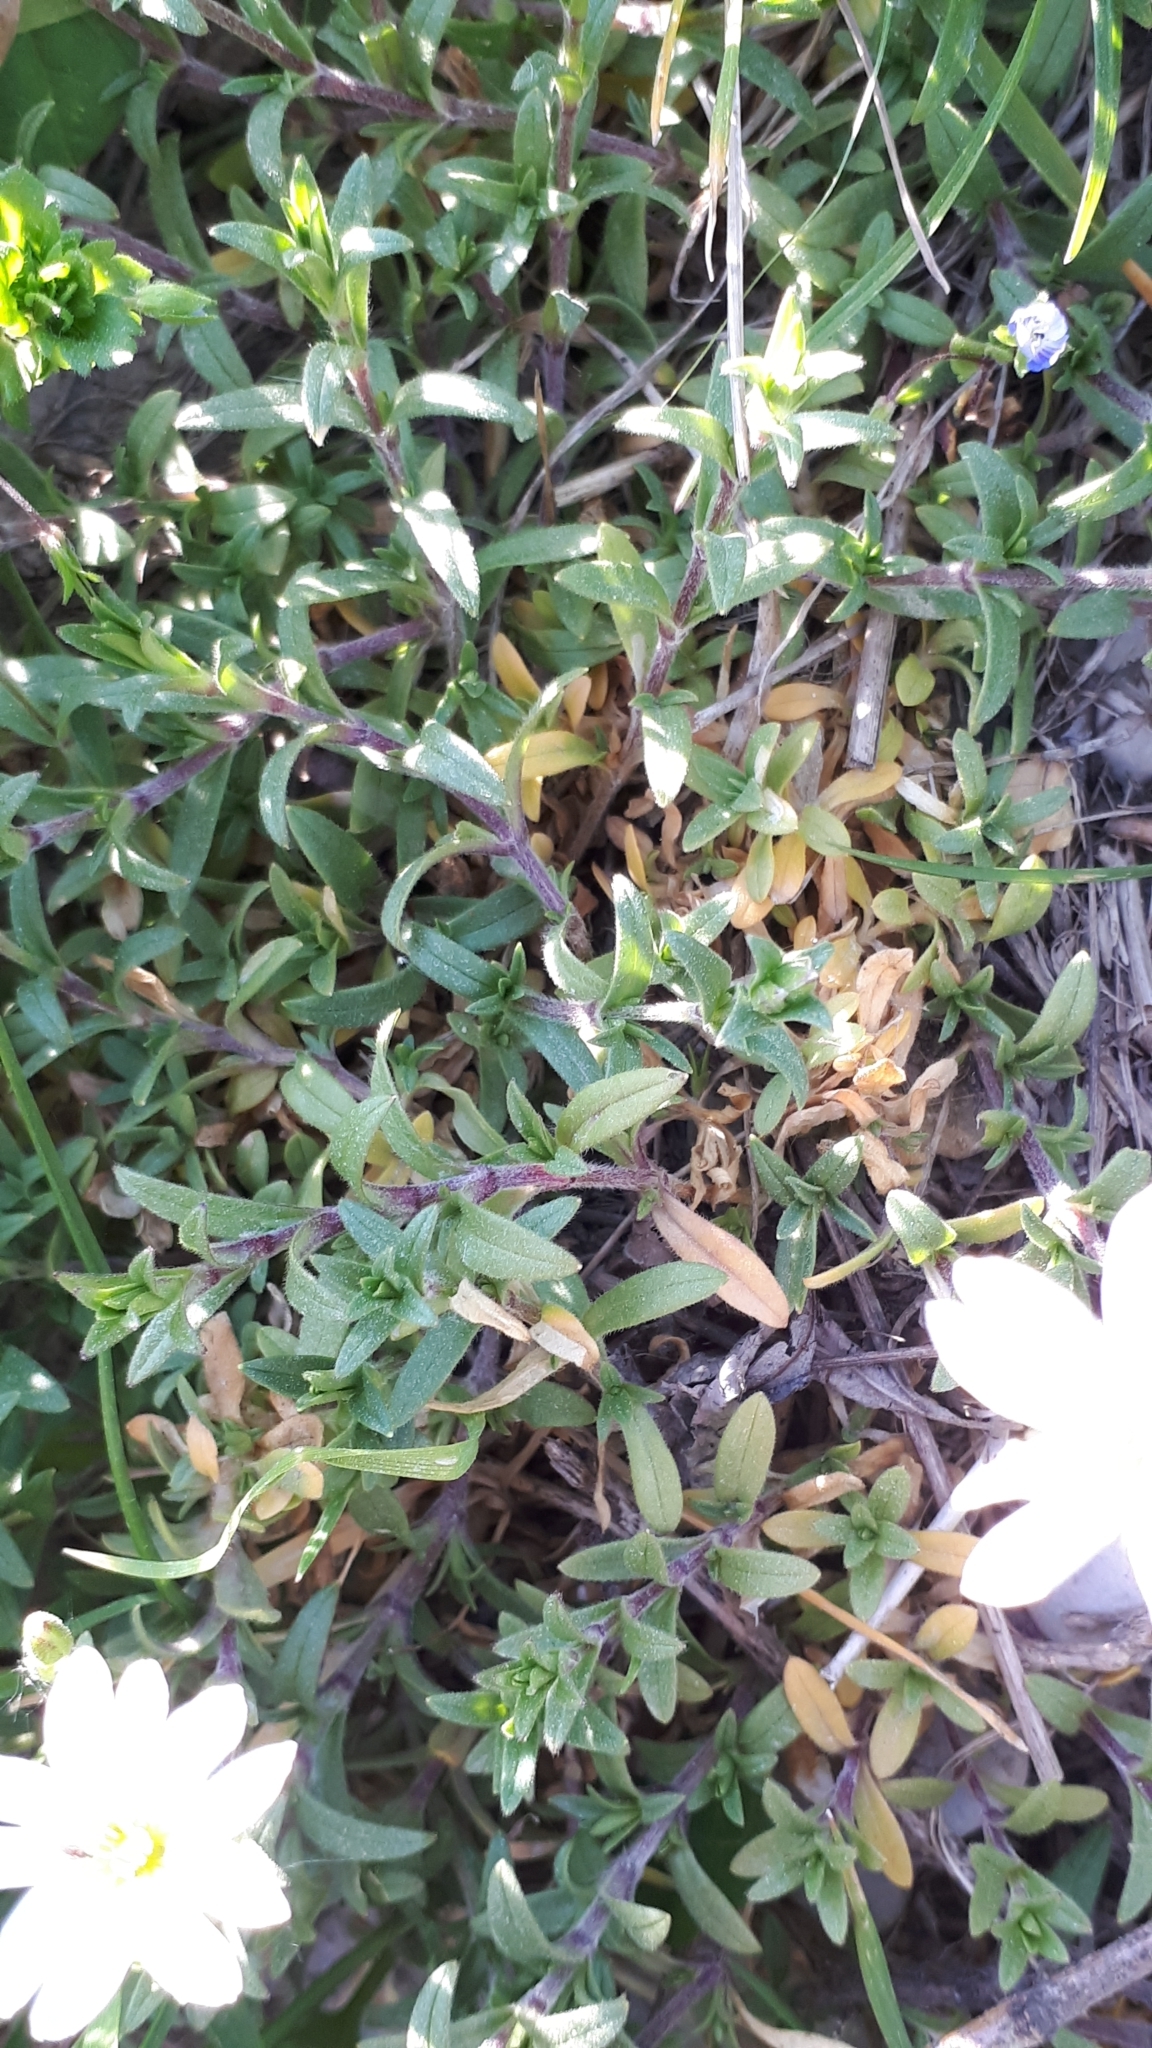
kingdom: Plantae
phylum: Tracheophyta
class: Magnoliopsida
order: Caryophyllales
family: Caryophyllaceae
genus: Cerastium
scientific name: Cerastium arvense
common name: Field mouse-ear
